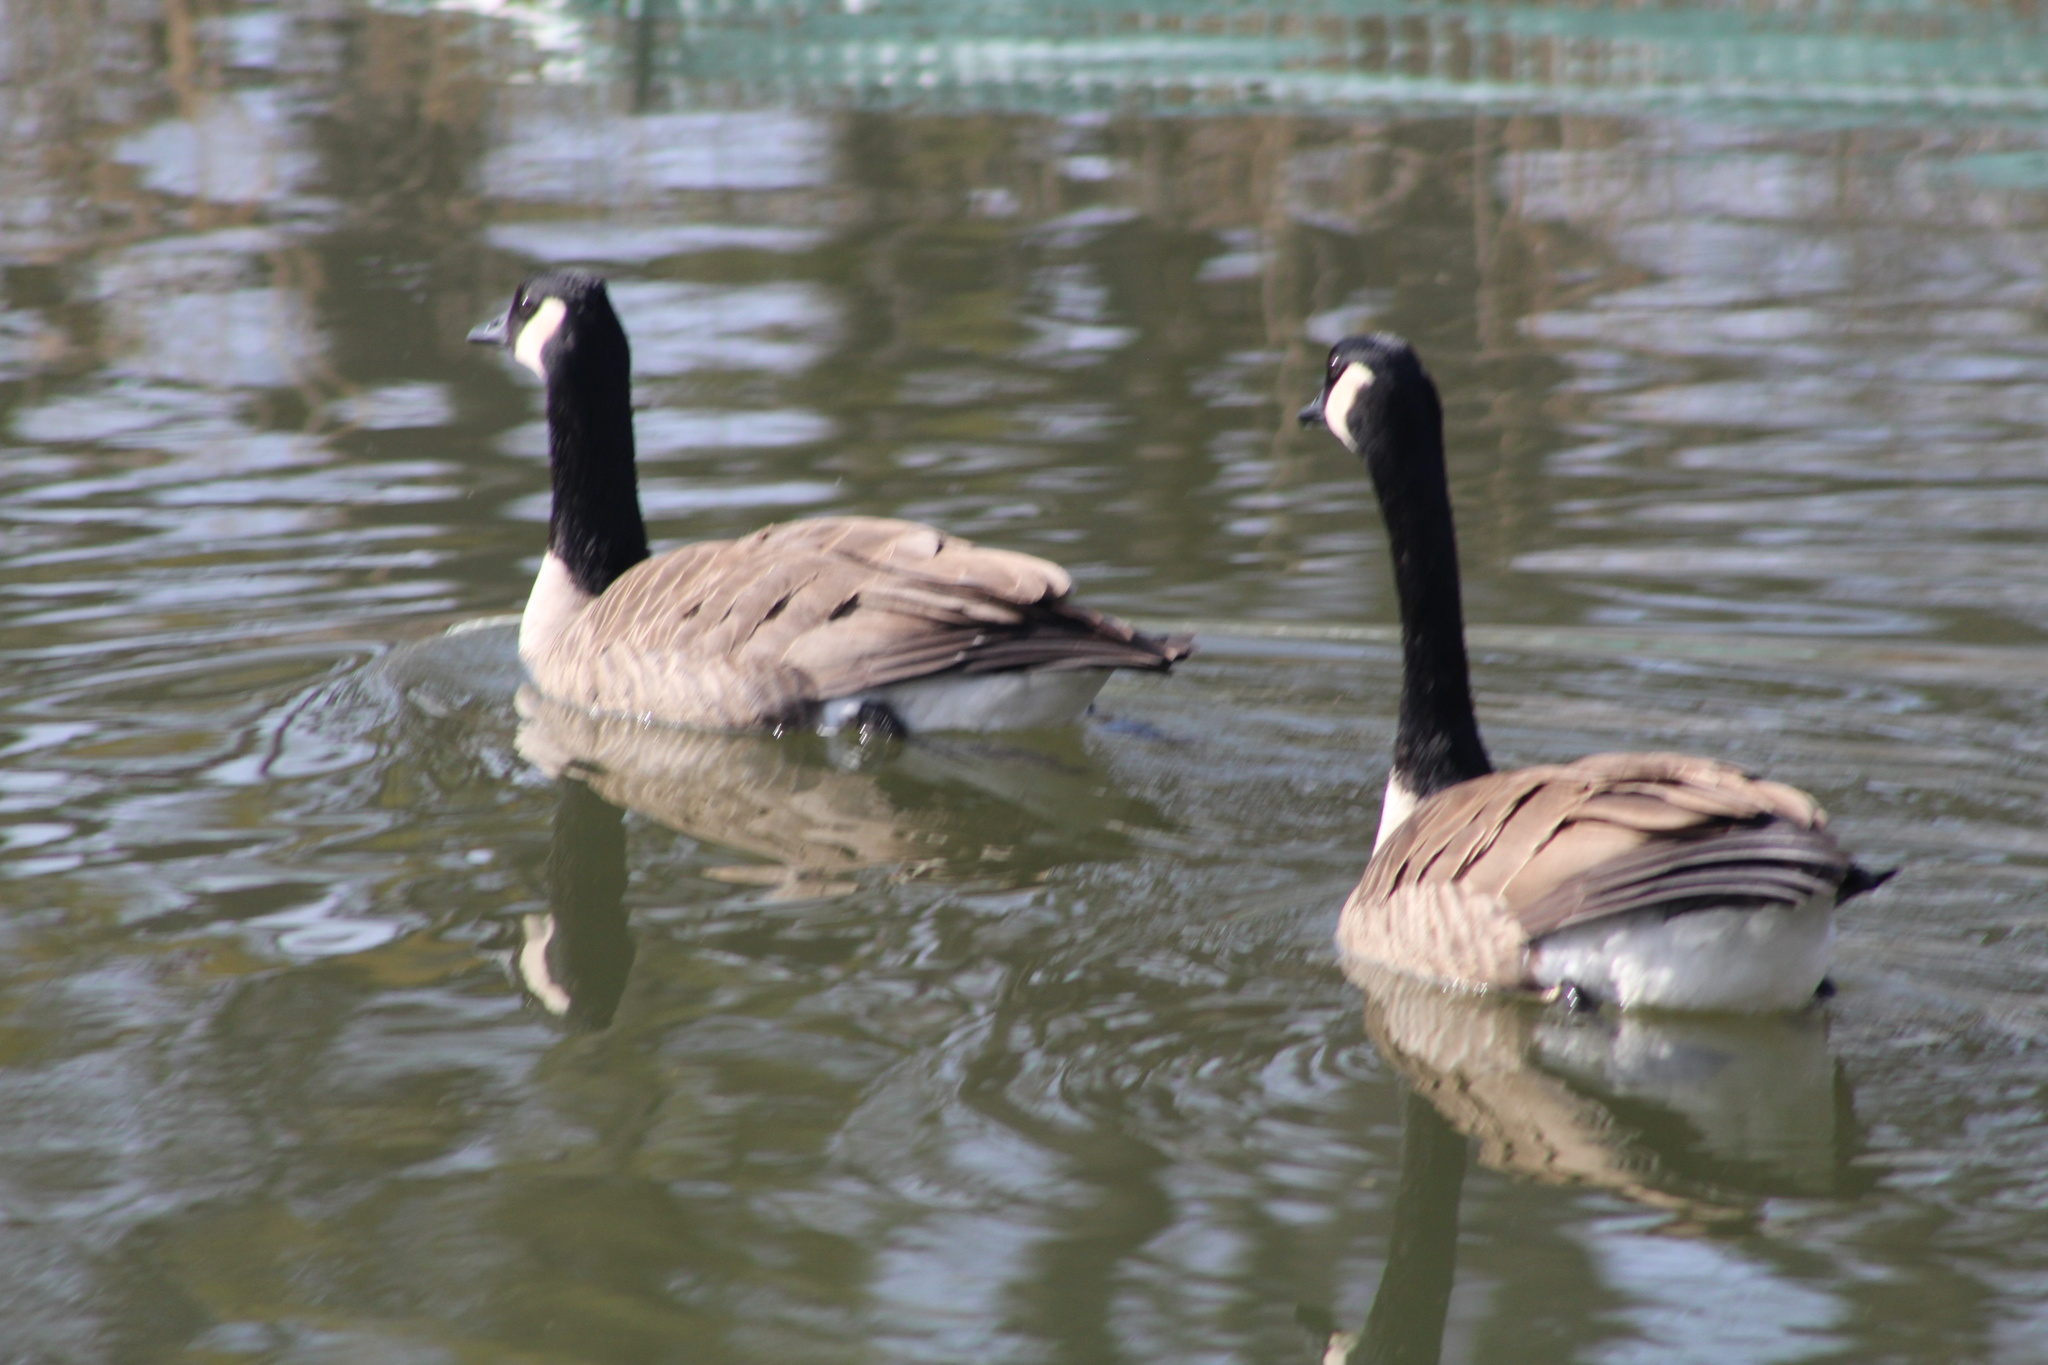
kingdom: Animalia
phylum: Chordata
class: Aves
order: Anseriformes
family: Anatidae
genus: Branta
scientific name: Branta canadensis
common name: Canada goose
